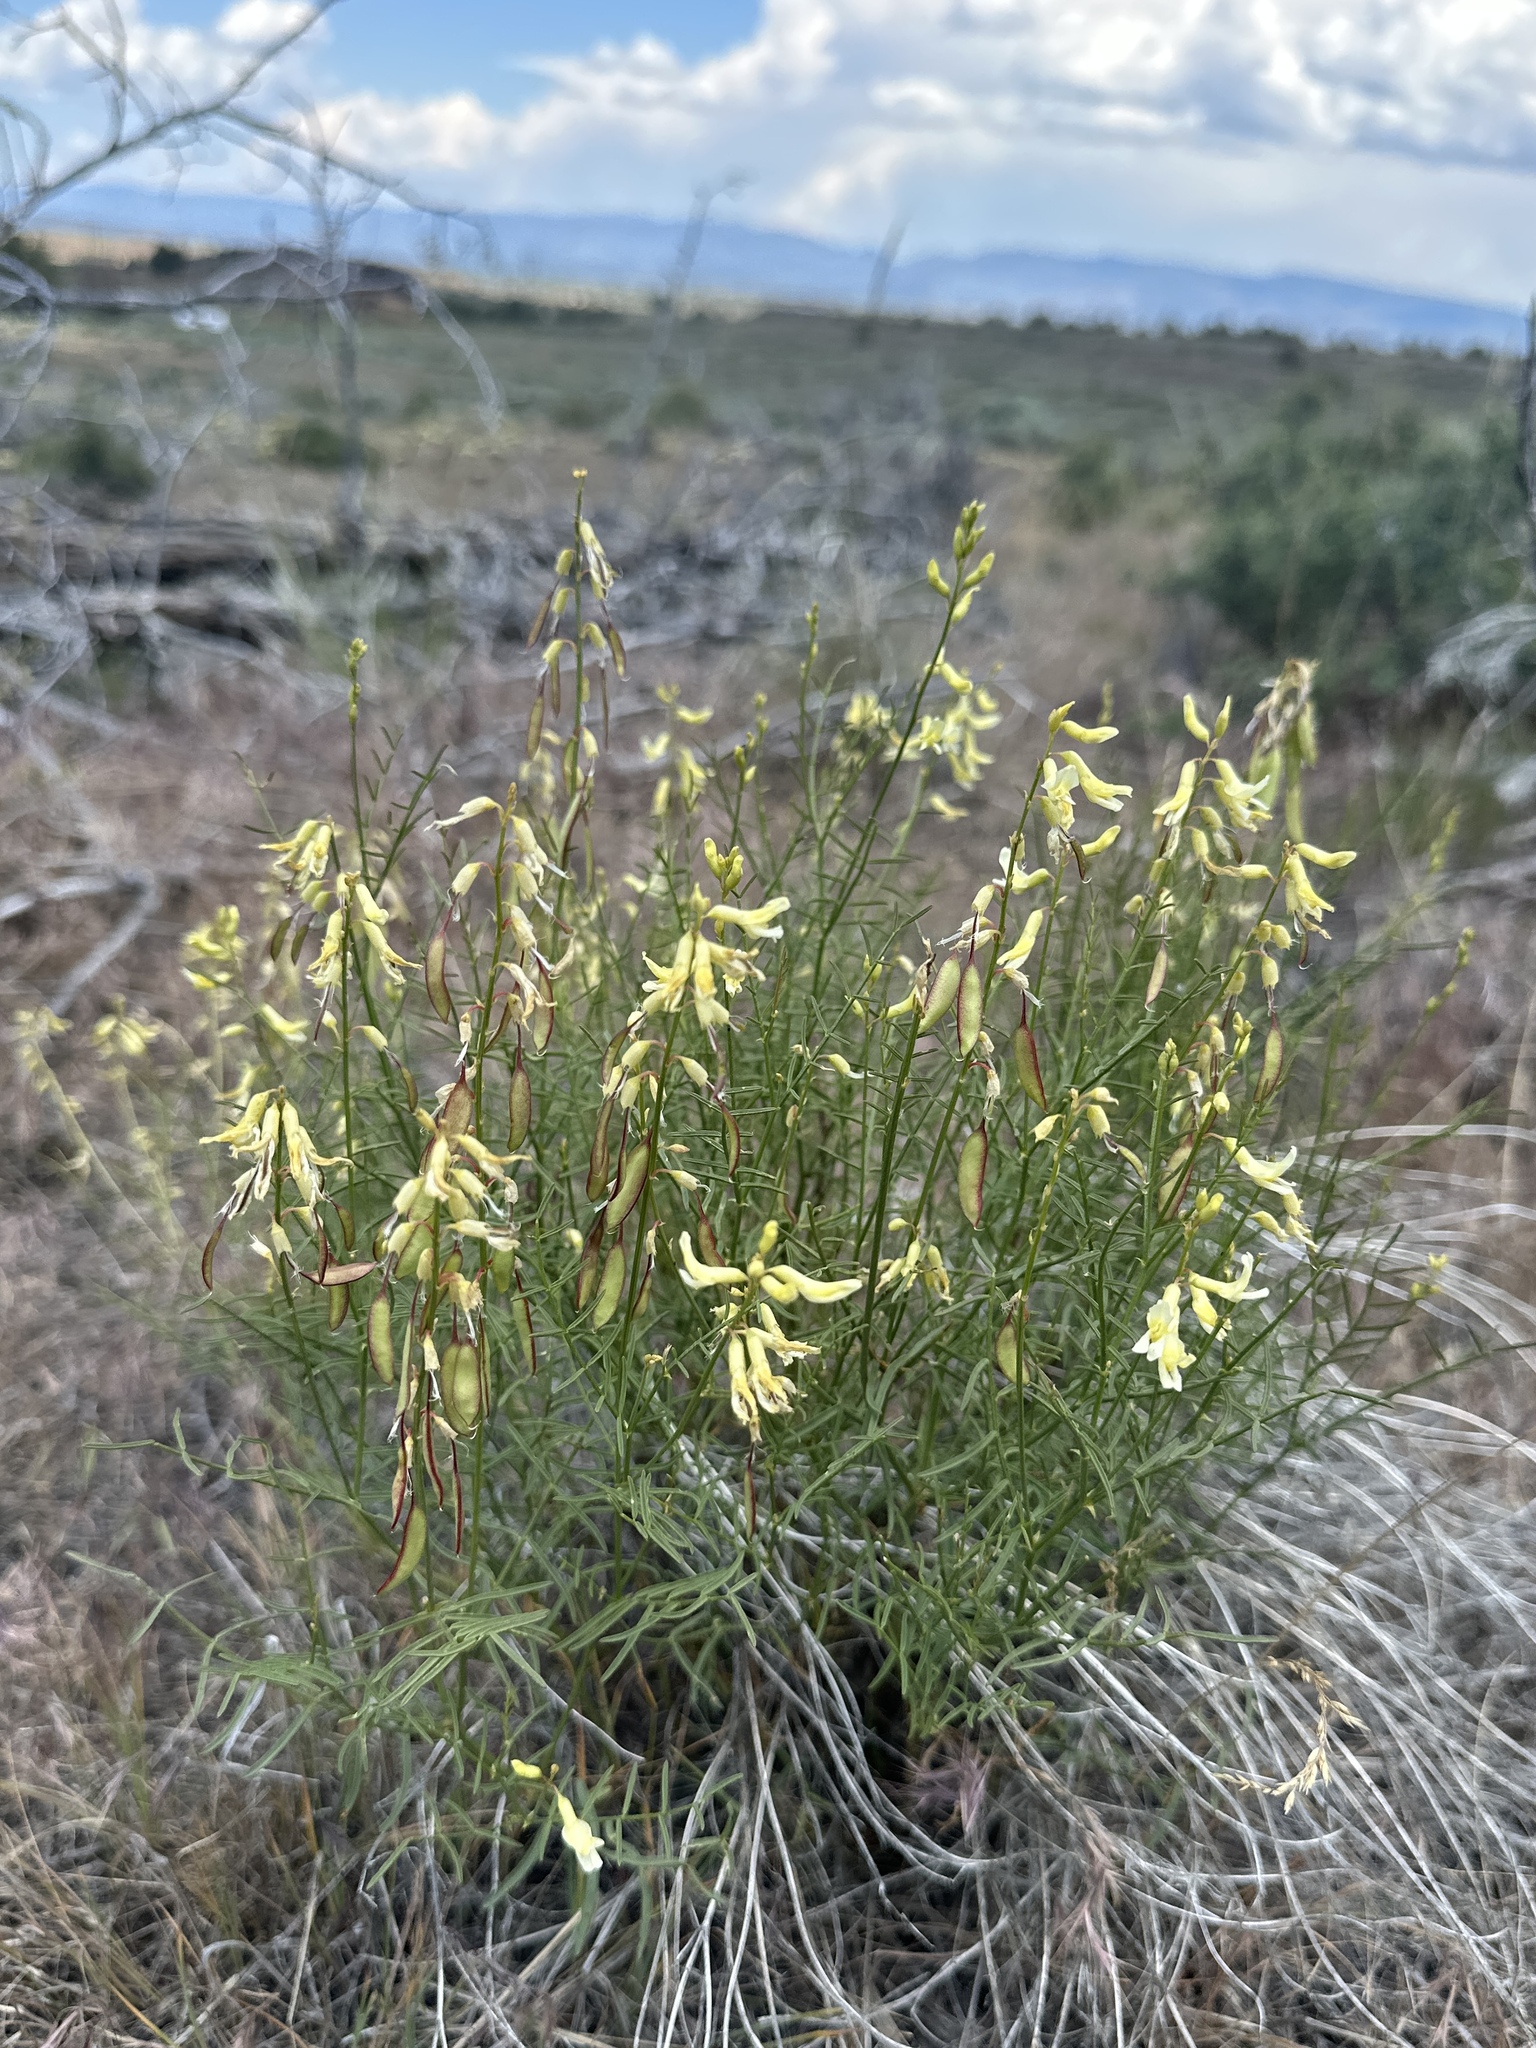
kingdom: Plantae
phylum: Tracheophyta
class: Magnoliopsida
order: Fabales
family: Fabaceae
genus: Astragalus
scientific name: Astragalus filipes
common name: Basalt milk-vetch
